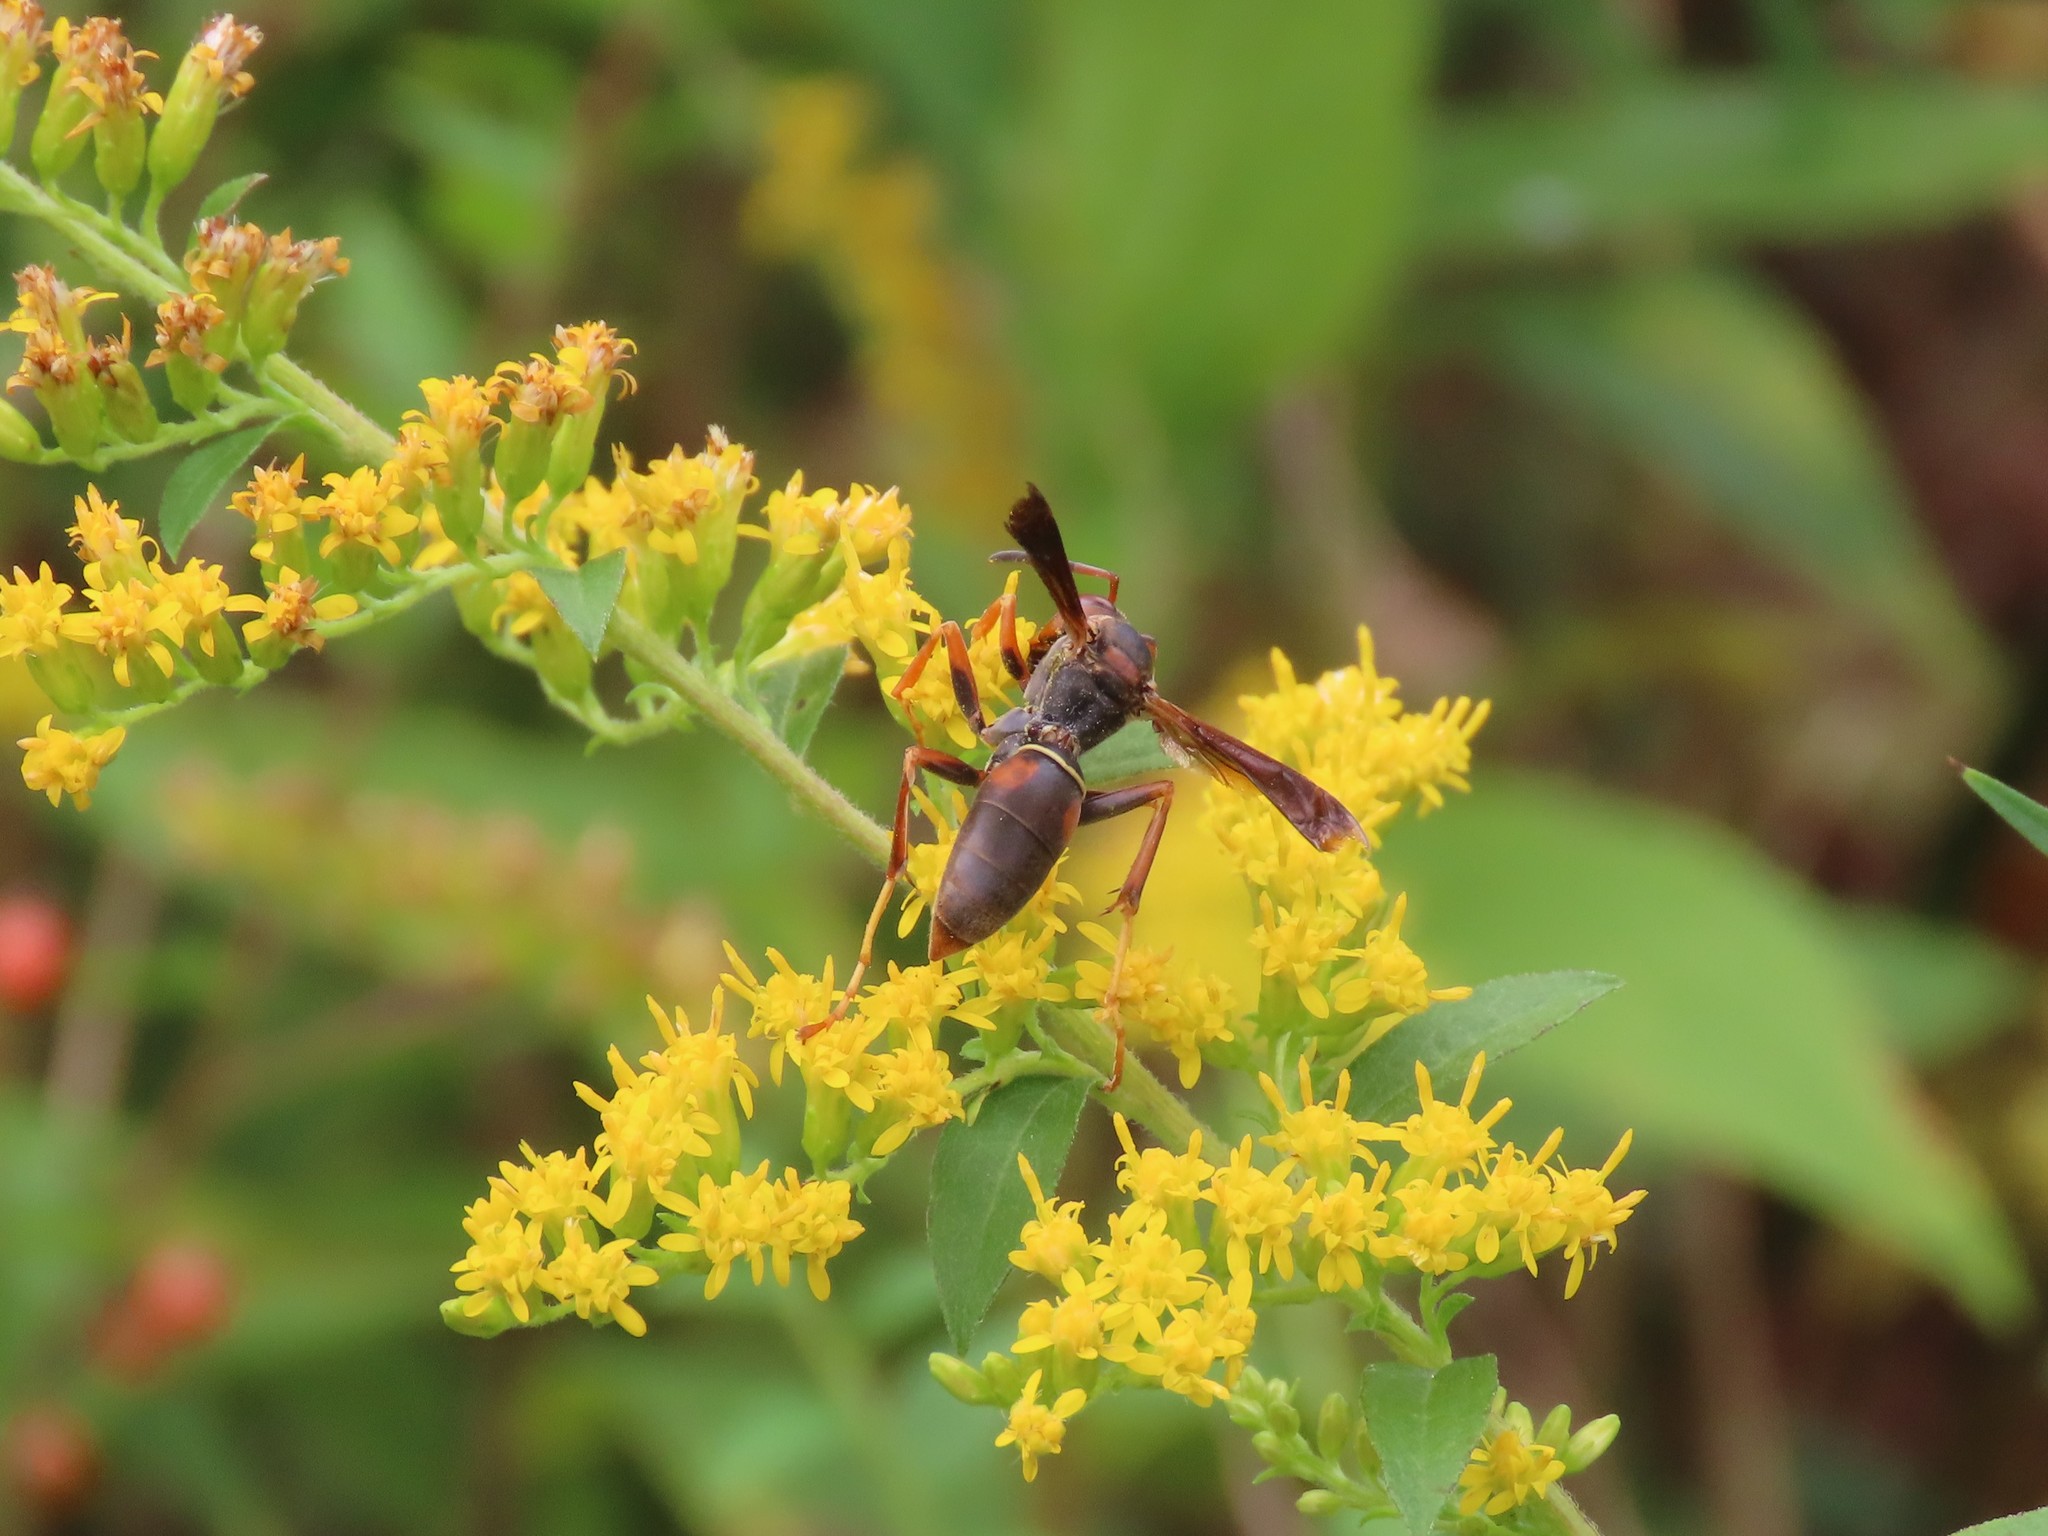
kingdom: Animalia
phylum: Arthropoda
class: Insecta
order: Hymenoptera
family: Eumenidae
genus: Polistes
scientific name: Polistes fuscatus
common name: Dark paper wasp
